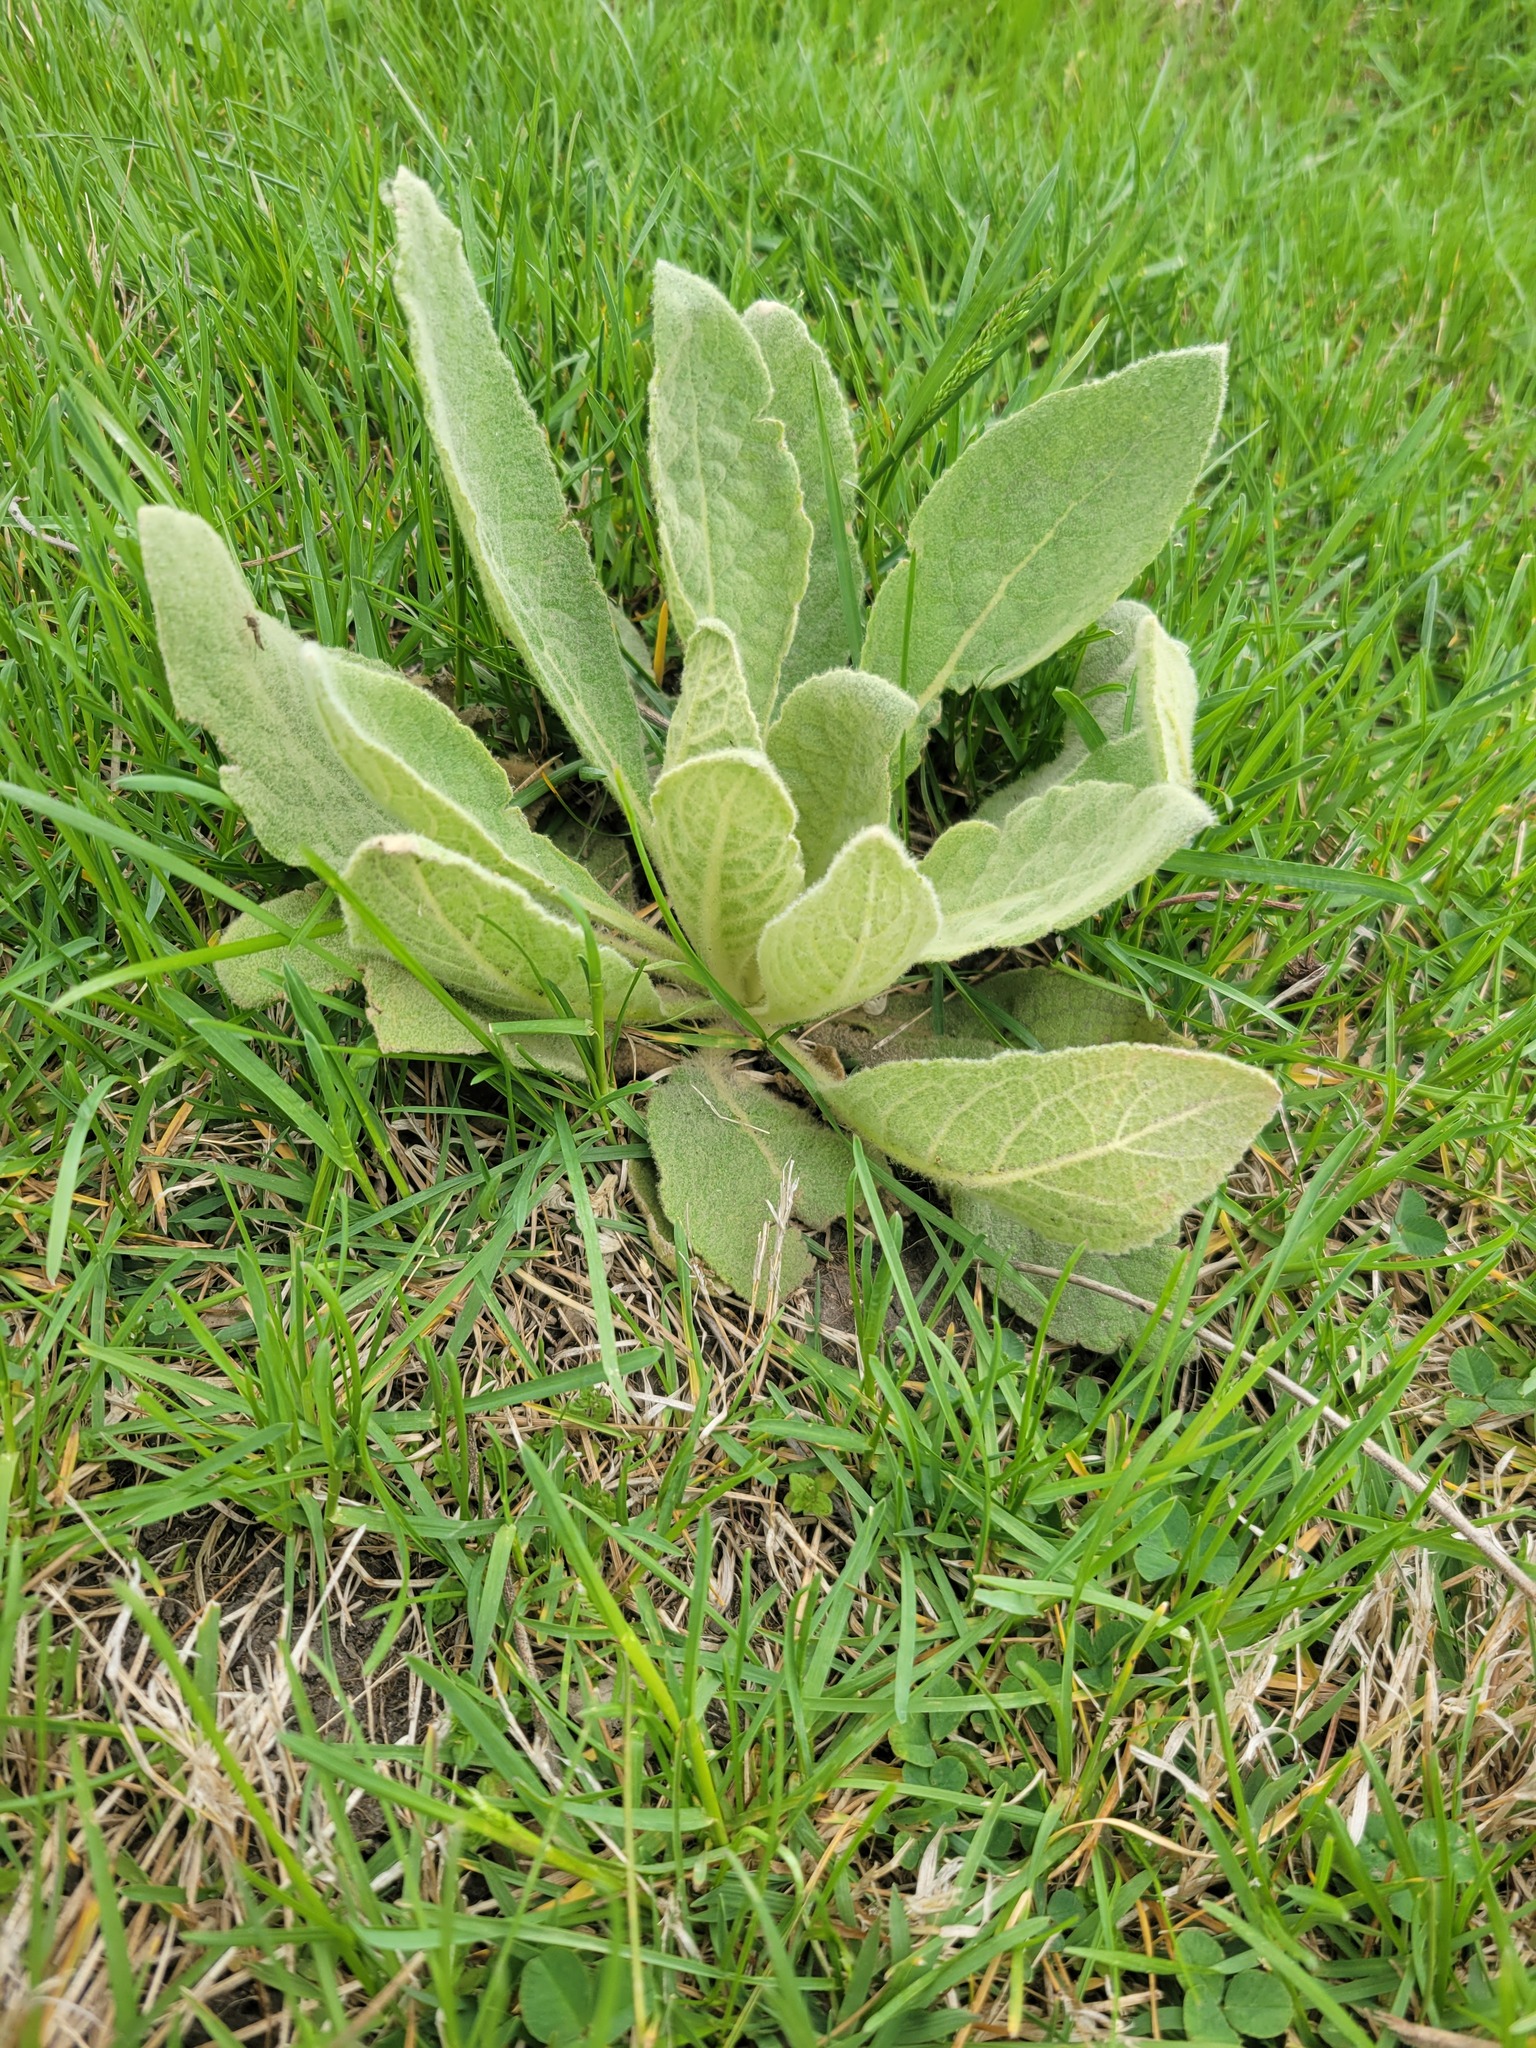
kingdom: Plantae
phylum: Tracheophyta
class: Magnoliopsida
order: Lamiales
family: Scrophulariaceae
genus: Verbascum
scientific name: Verbascum thapsus
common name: Common mullein
